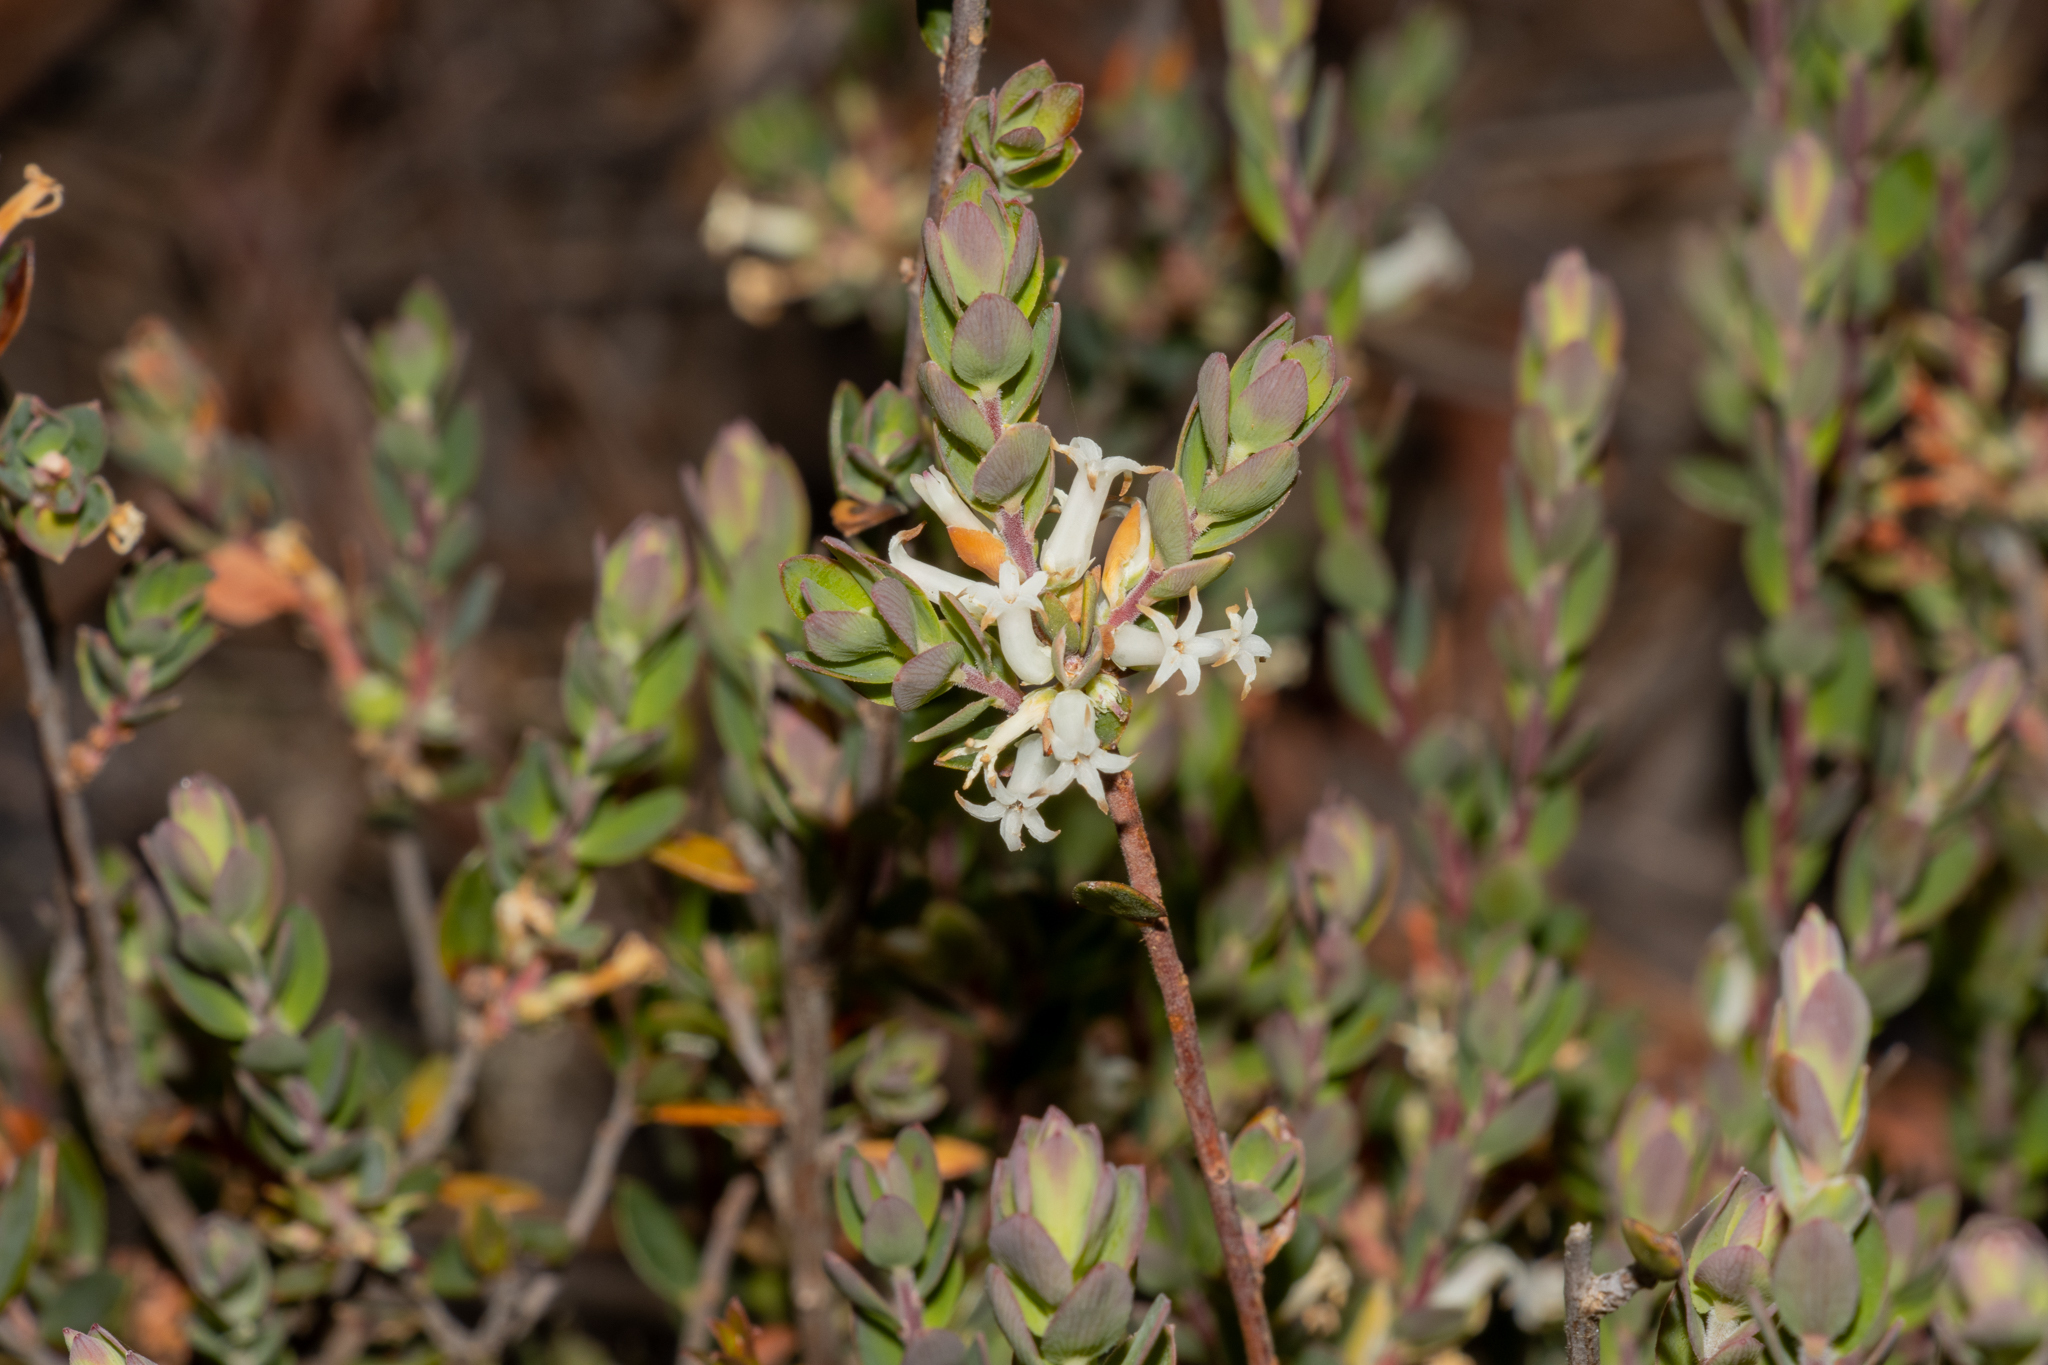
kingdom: Plantae
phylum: Tracheophyta
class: Magnoliopsida
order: Ericales
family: Ericaceae
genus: Brachyloma
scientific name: Brachyloma daphnoides
